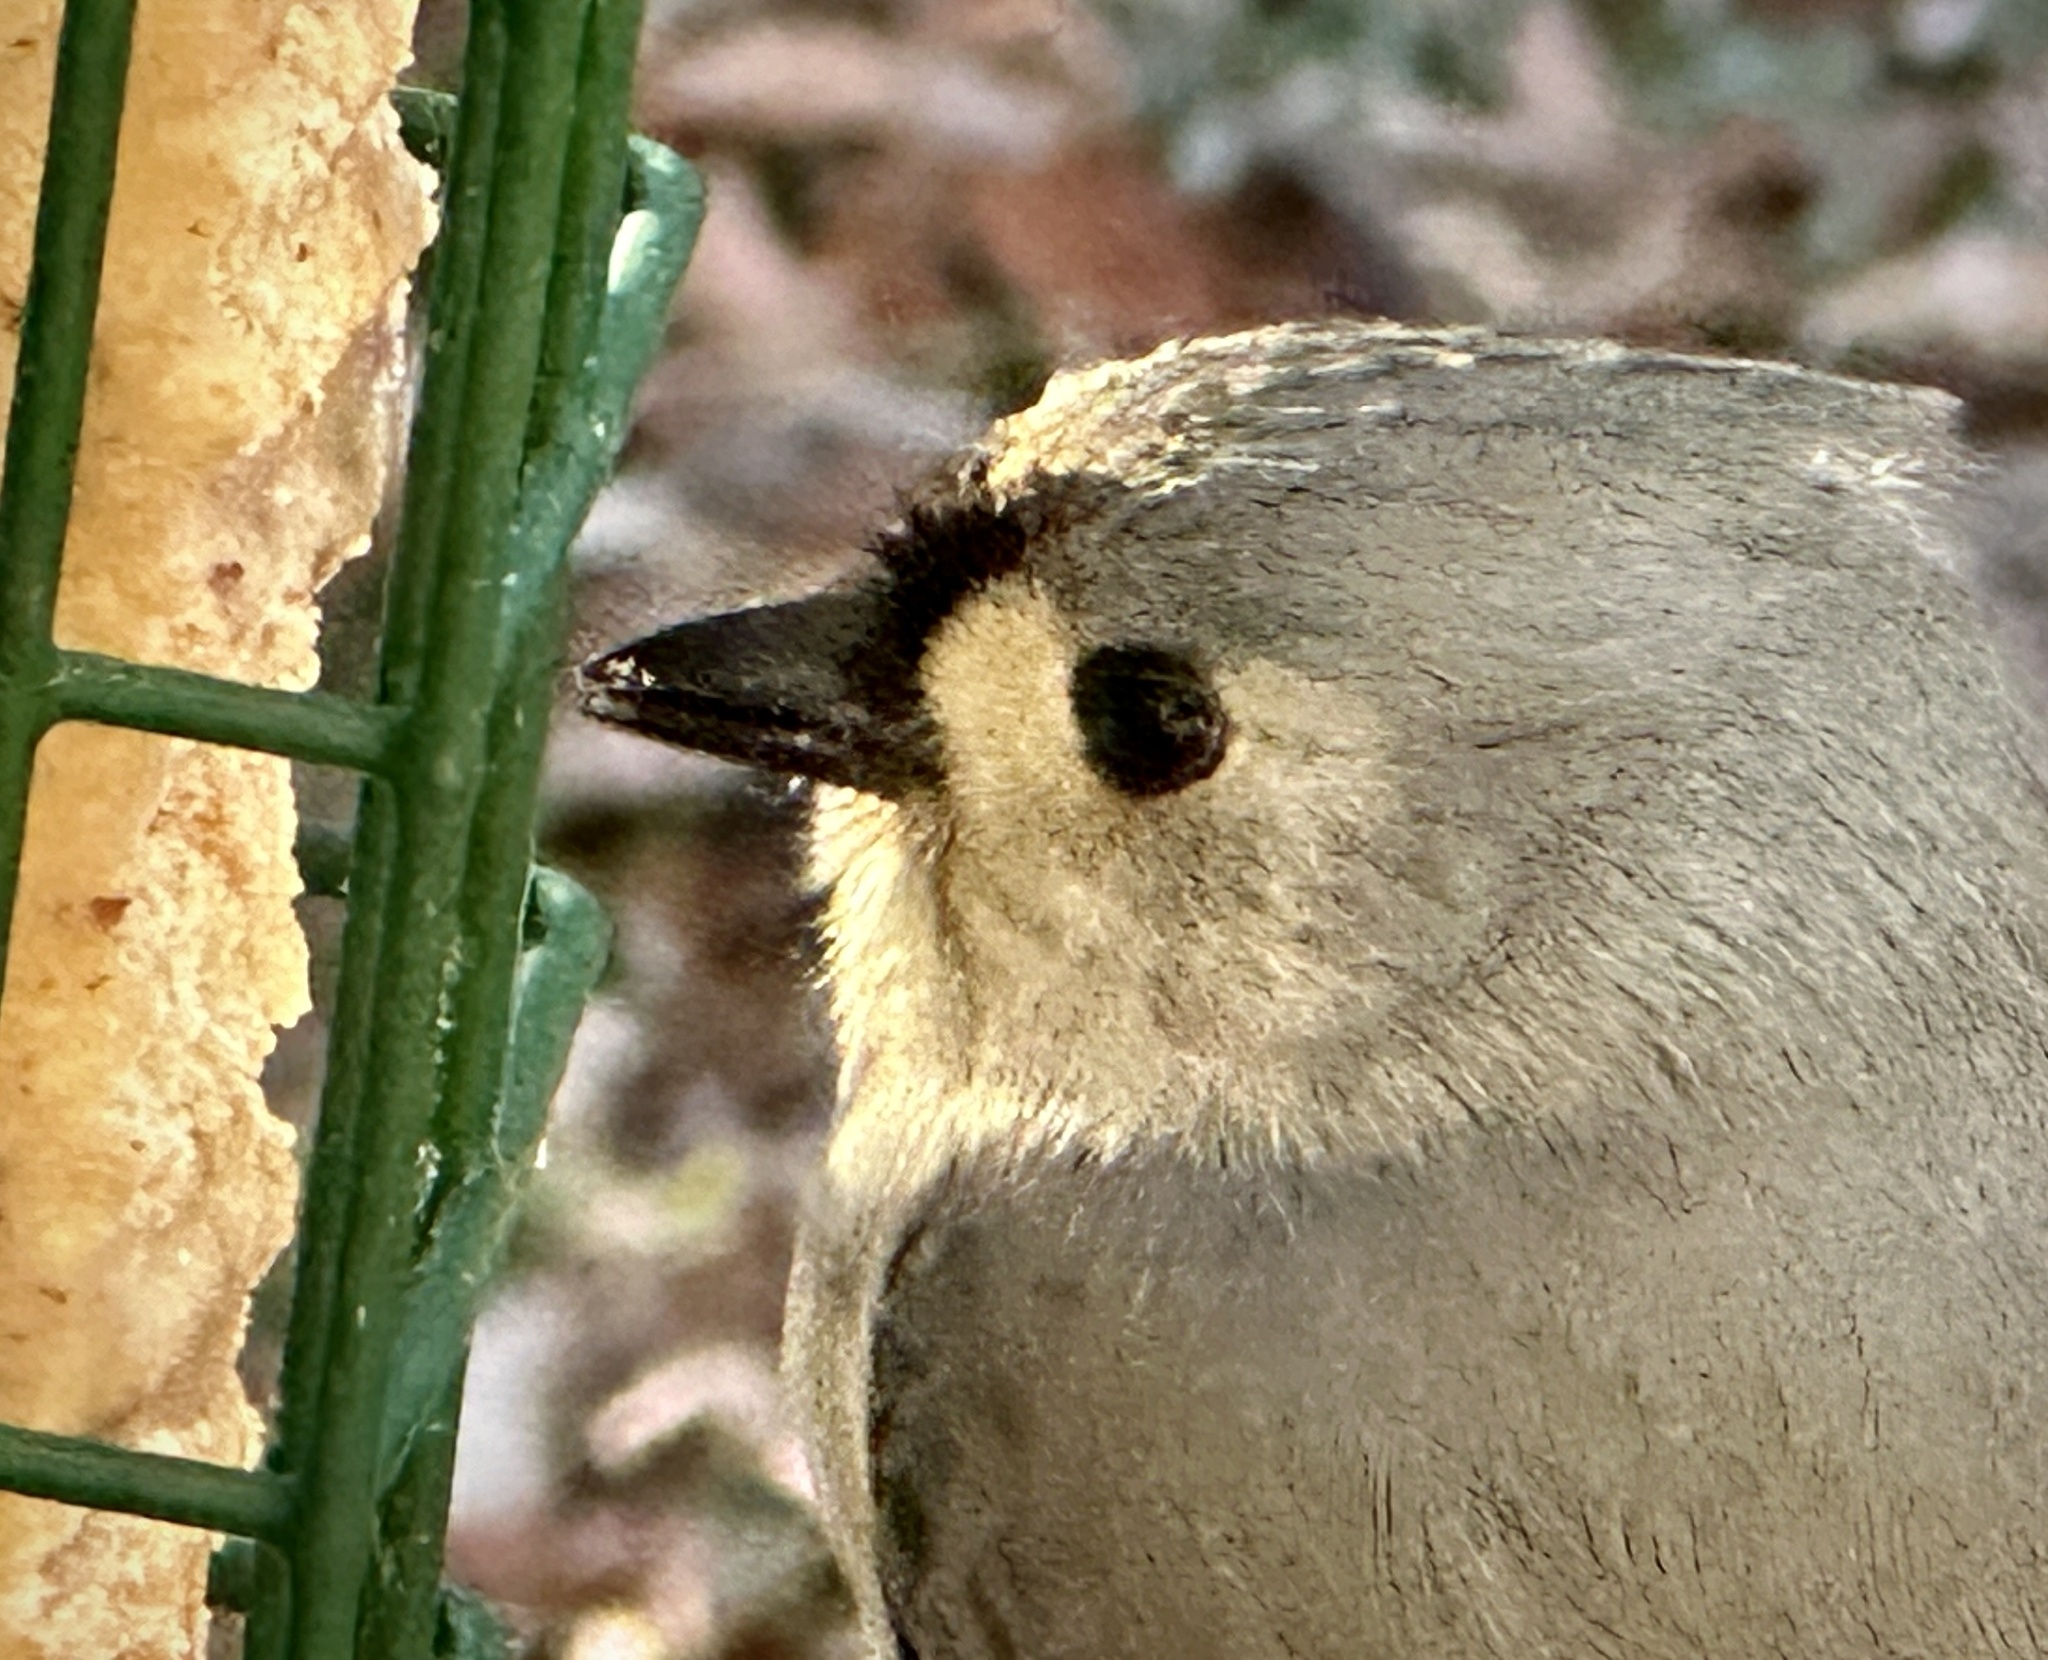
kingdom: Animalia
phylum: Chordata
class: Aves
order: Passeriformes
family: Paridae
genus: Baeolophus
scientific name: Baeolophus bicolor
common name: Tufted titmouse
